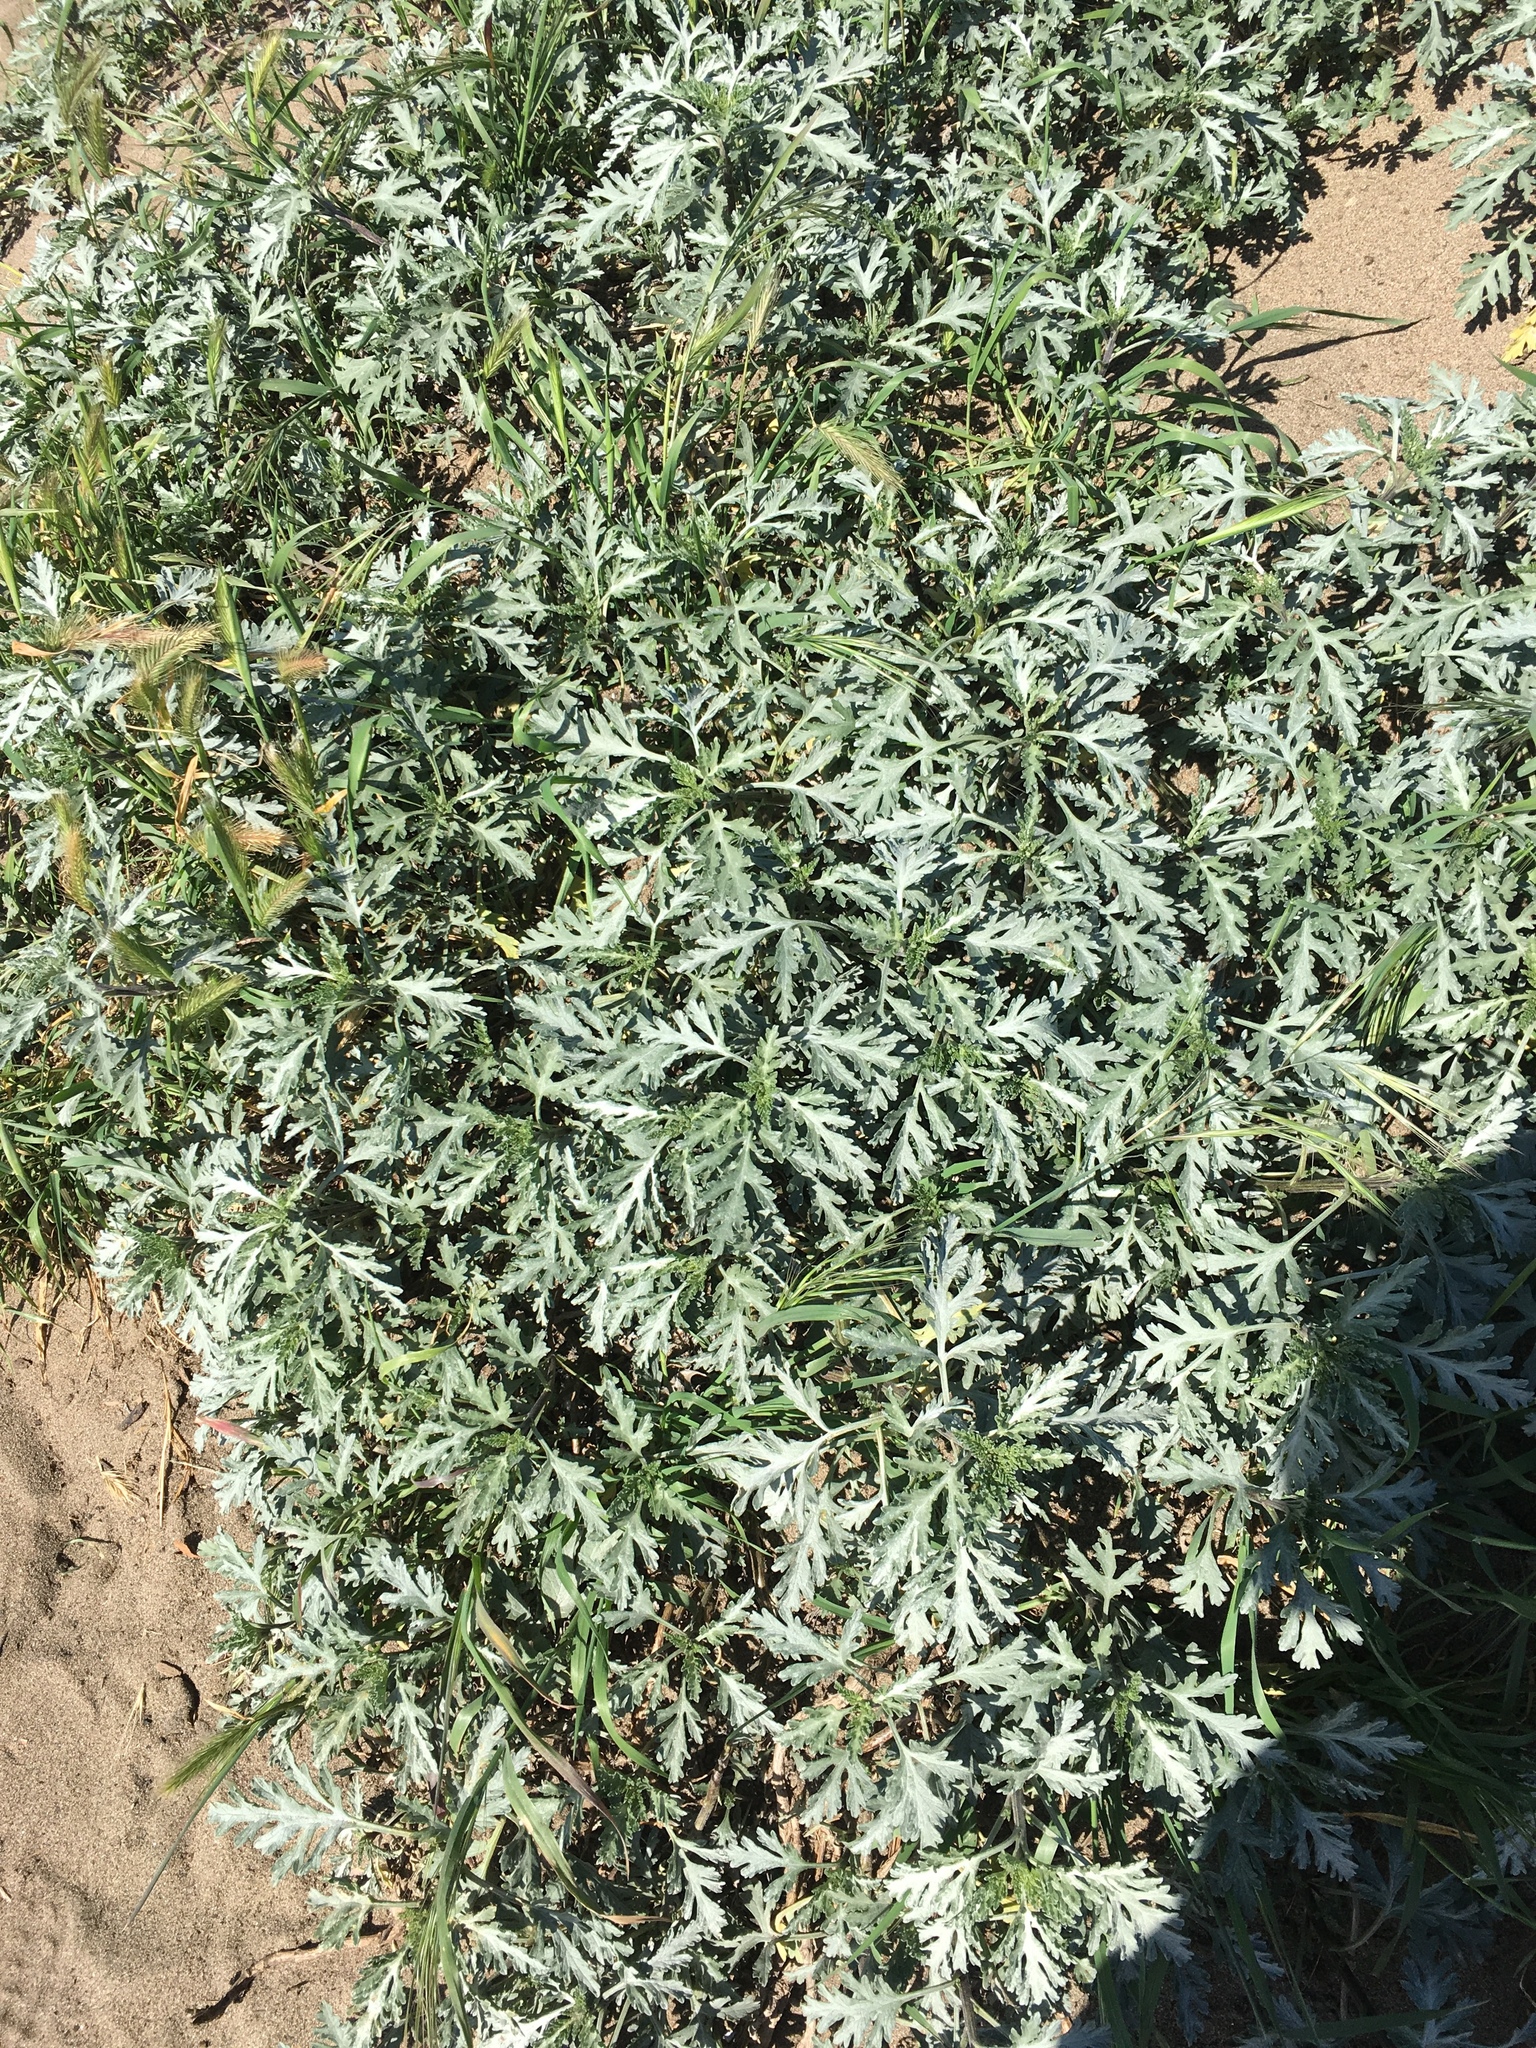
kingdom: Plantae
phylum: Tracheophyta
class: Magnoliopsida
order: Asterales
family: Asteraceae
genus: Ambrosia
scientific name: Ambrosia chamissonis
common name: Beachbur
